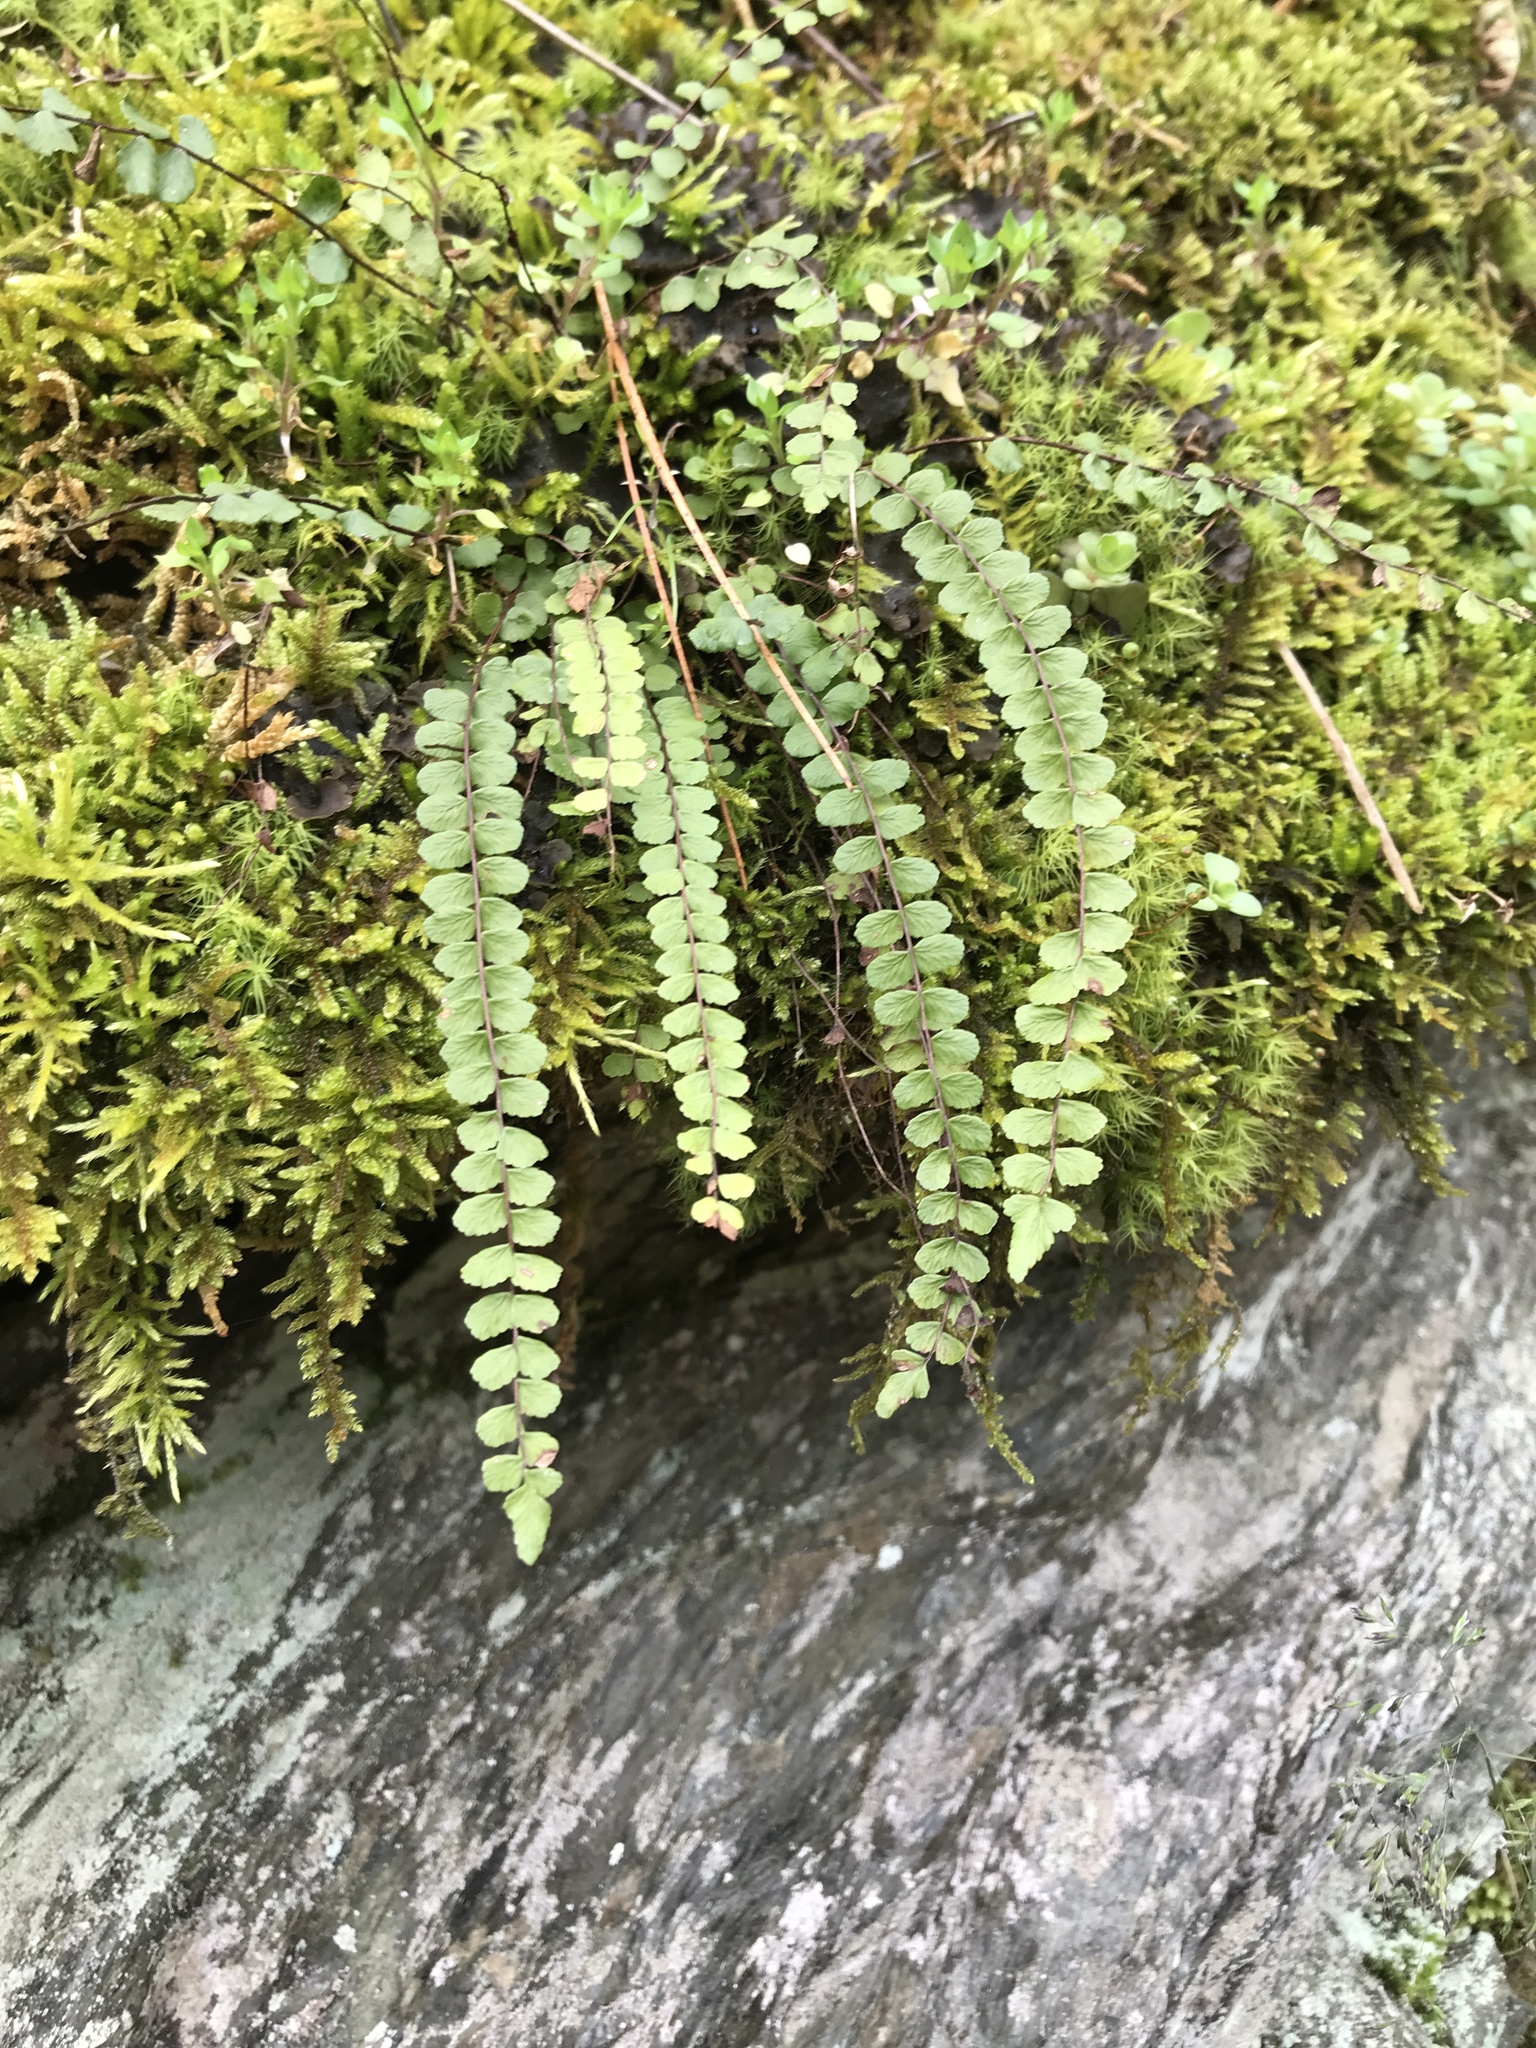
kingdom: Plantae
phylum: Tracheophyta
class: Polypodiopsida
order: Polypodiales
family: Aspleniaceae
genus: Asplenium
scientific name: Asplenium trichomanes
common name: Maidenhair spleenwort
